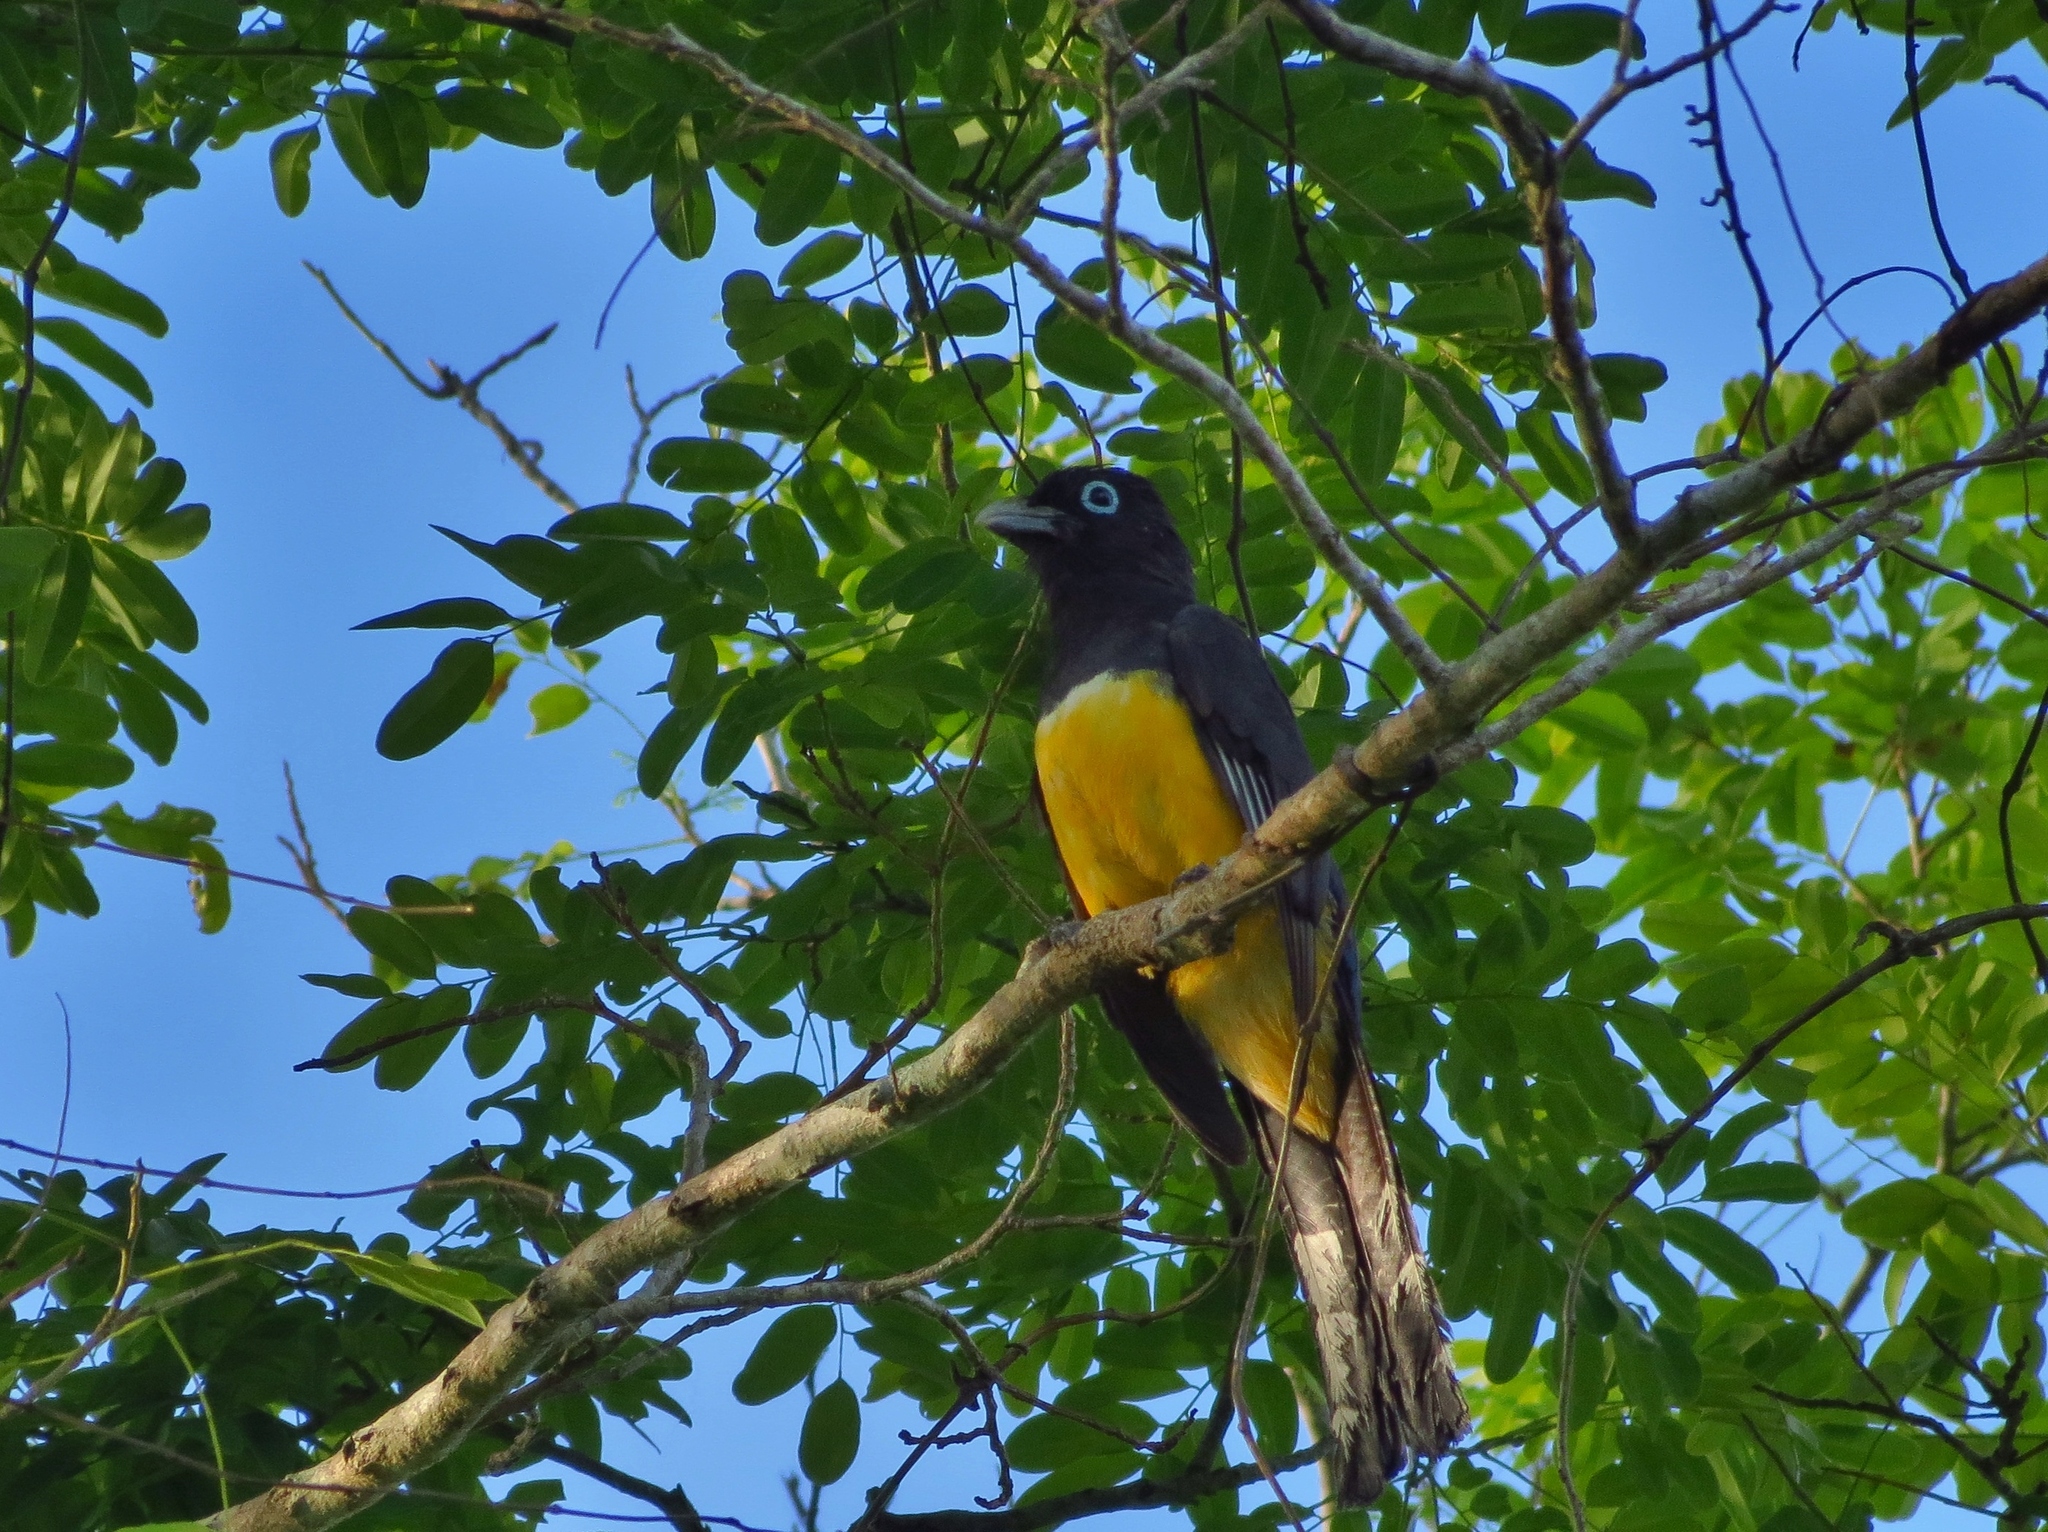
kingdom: Animalia
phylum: Chordata
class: Aves
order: Trogoniformes
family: Trogonidae
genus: Trogon
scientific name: Trogon melanocephalus
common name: Black-headed trogon
